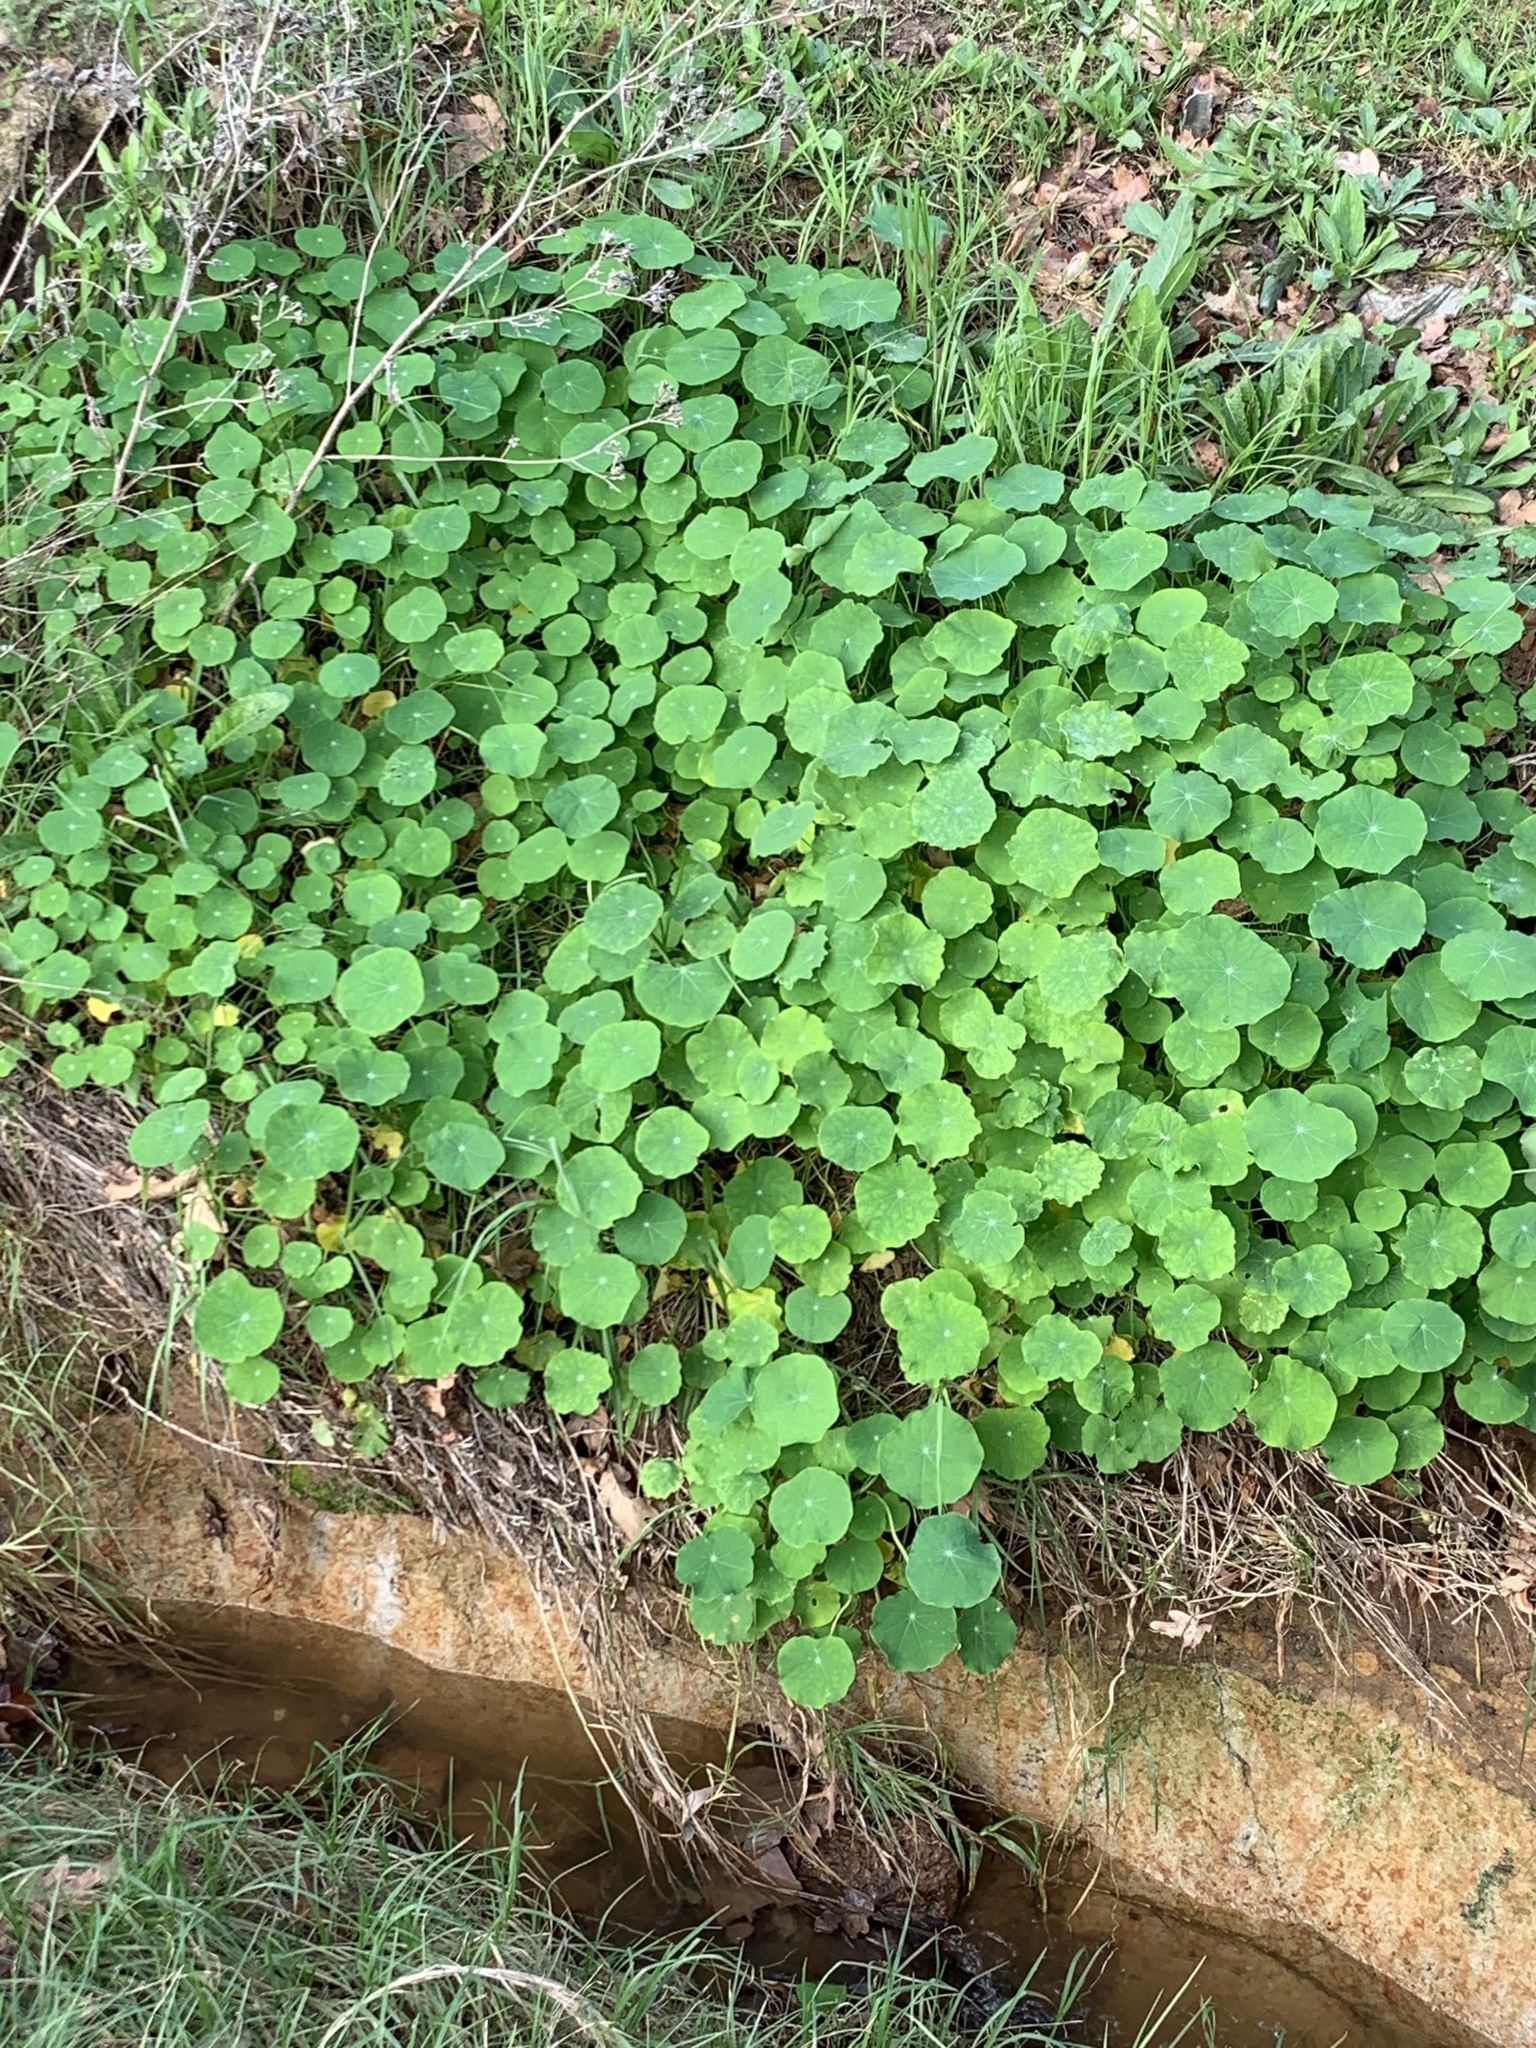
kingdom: Plantae
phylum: Tracheophyta
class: Magnoliopsida
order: Brassicales
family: Tropaeolaceae
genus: Tropaeolum
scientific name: Tropaeolum majus
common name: Nasturtium
